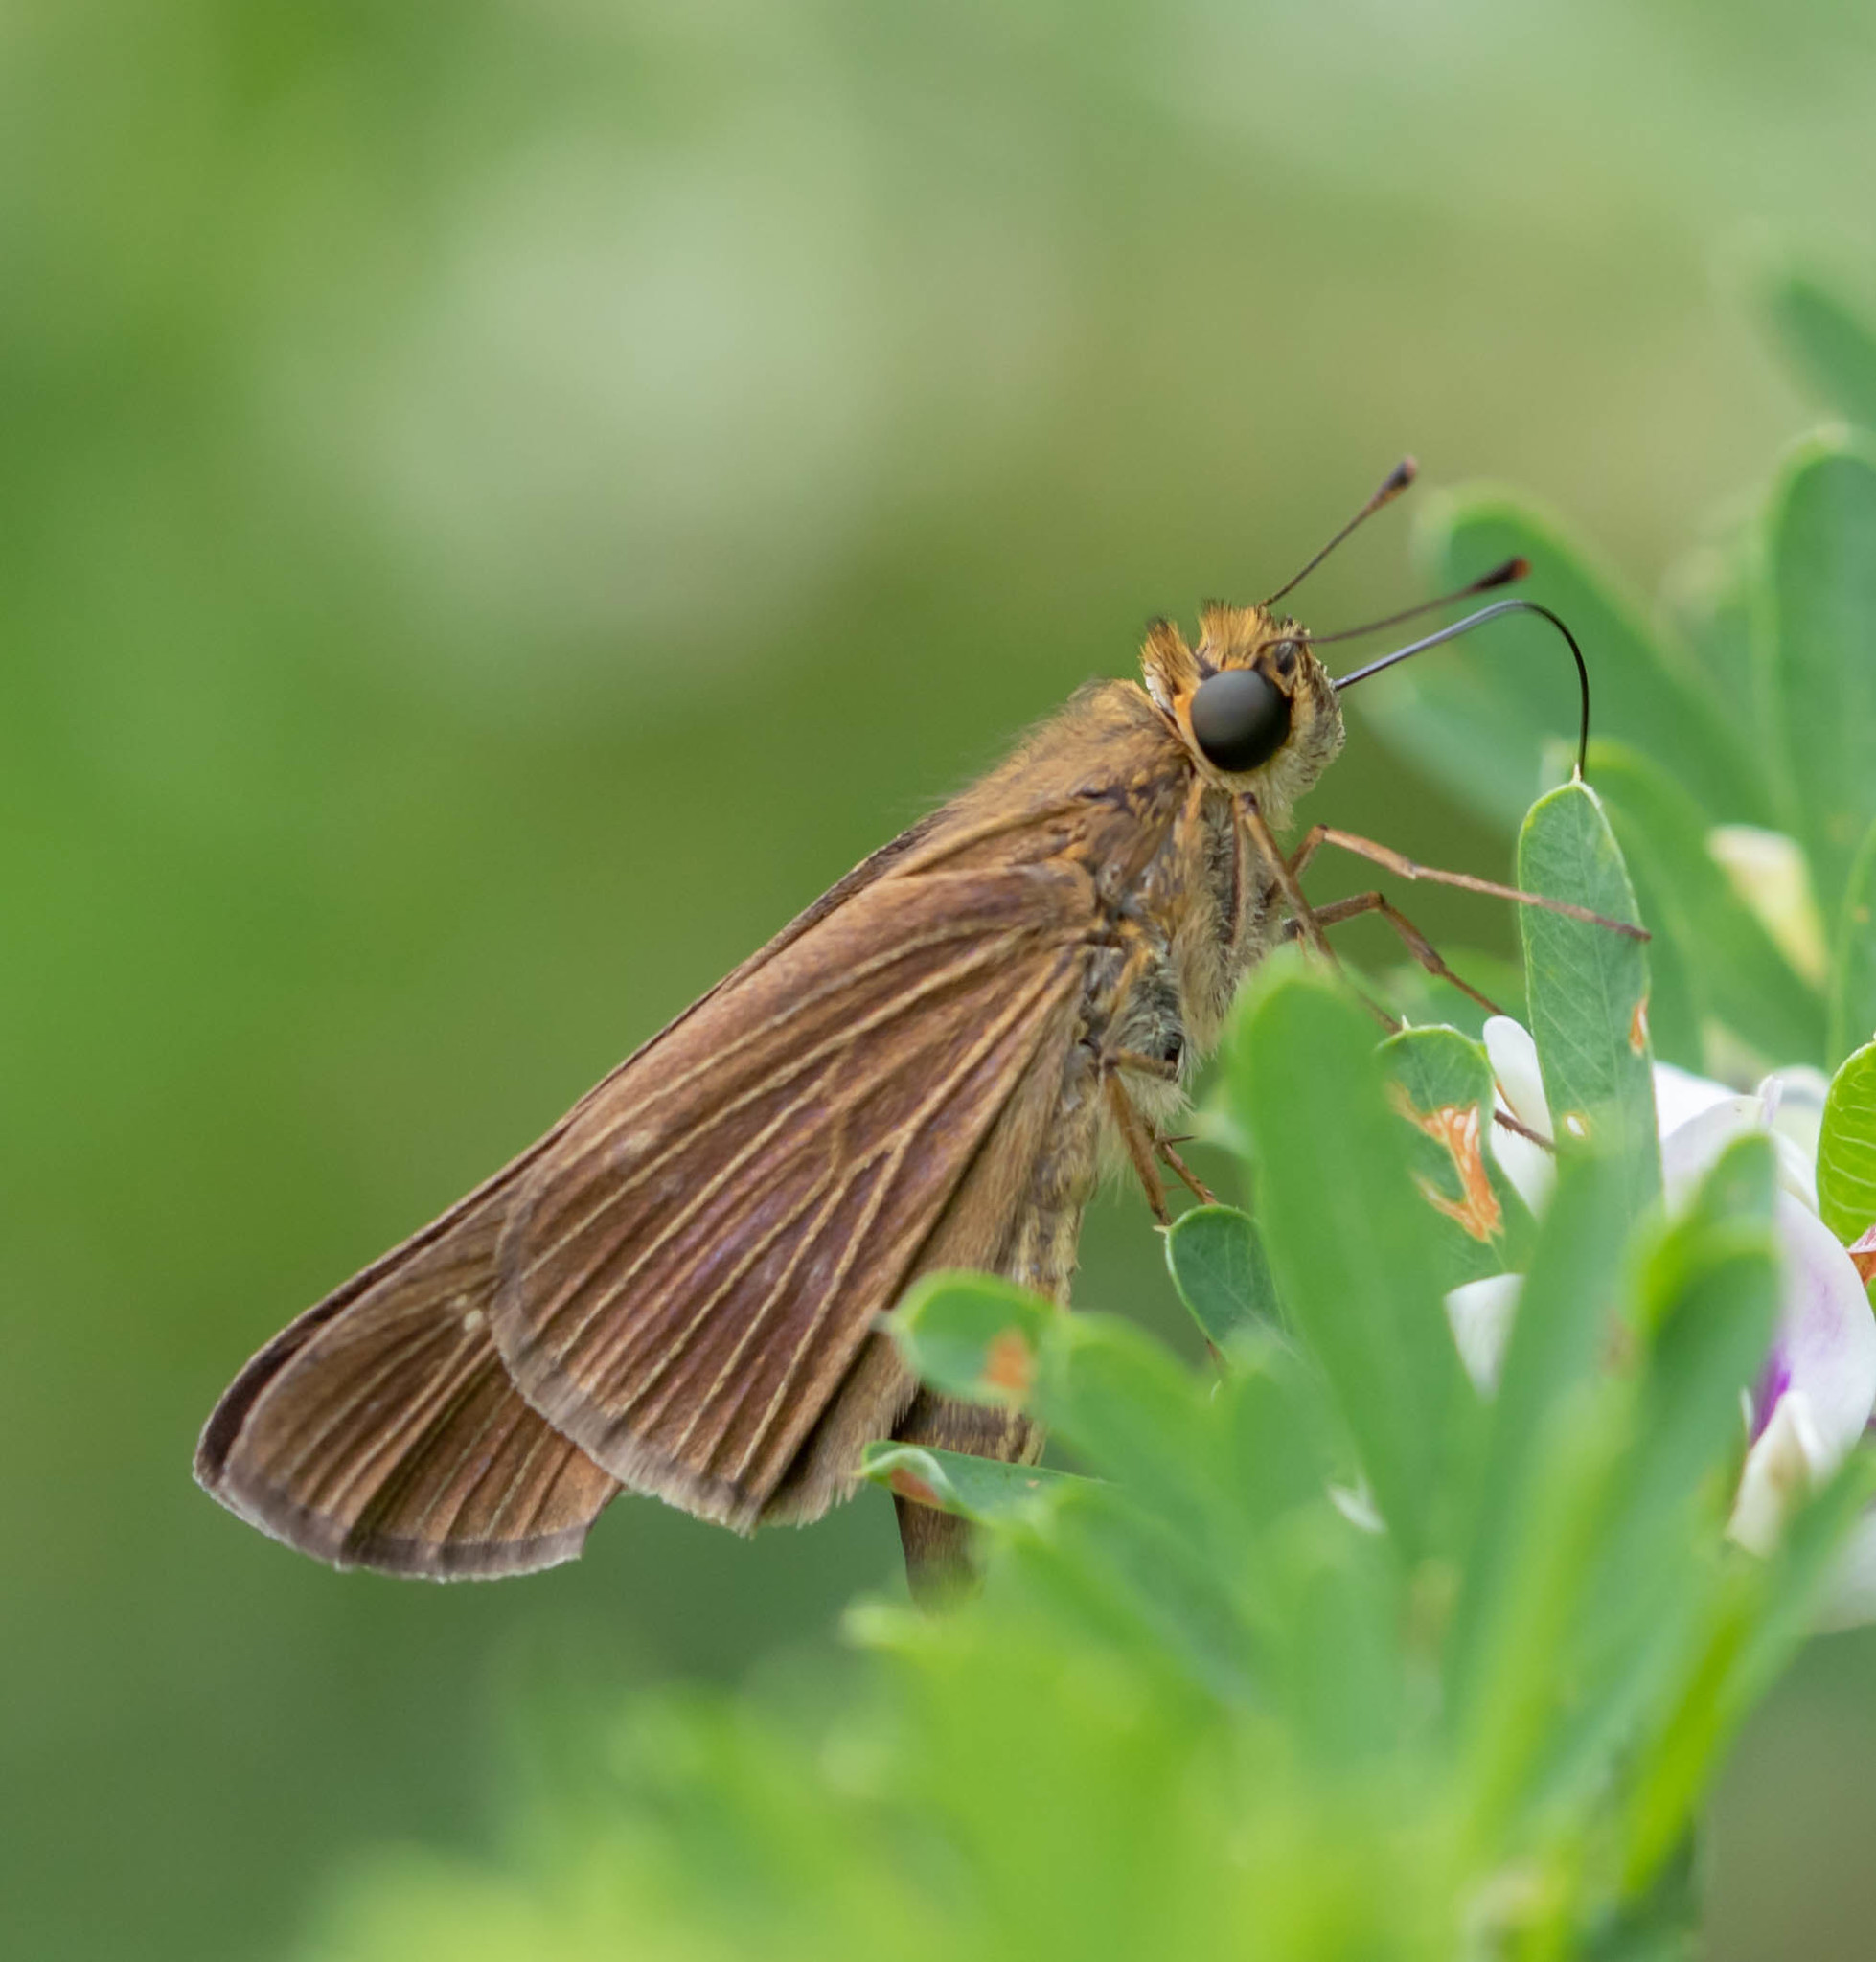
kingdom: Animalia
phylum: Arthropoda
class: Insecta
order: Lepidoptera
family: Hesperiidae
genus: Panoquina
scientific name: Panoquina ocola
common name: Ocola skipper
